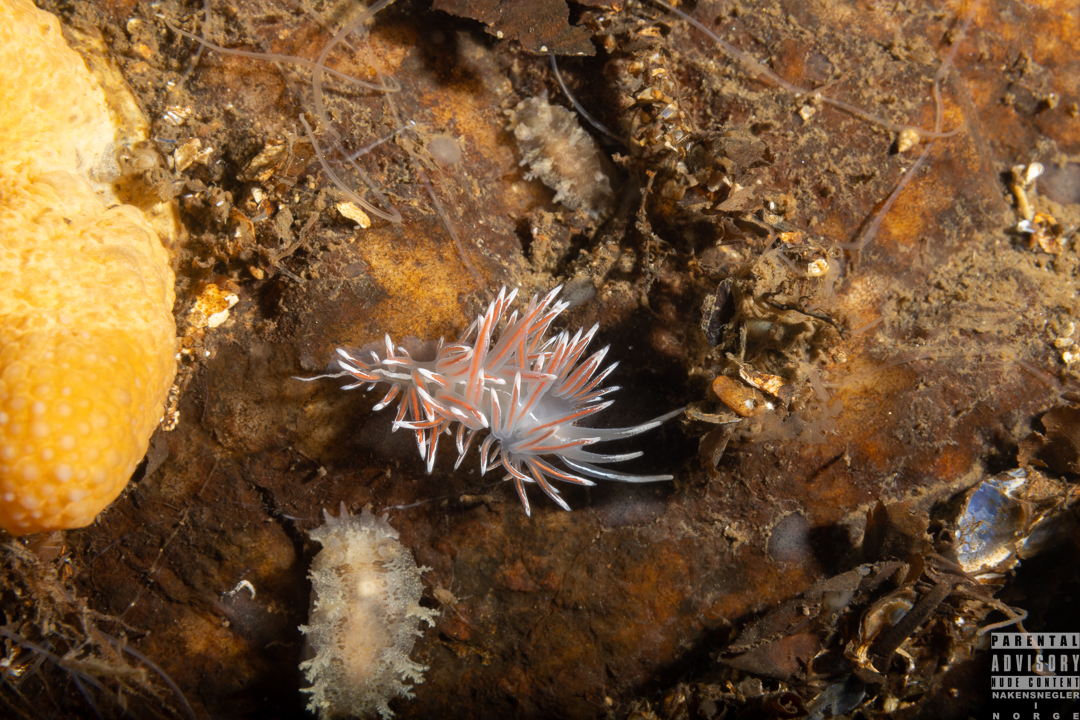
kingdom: Animalia
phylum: Mollusca
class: Gastropoda
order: Nudibranchia
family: Coryphellidae
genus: Coryphella
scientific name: Coryphella lineata
